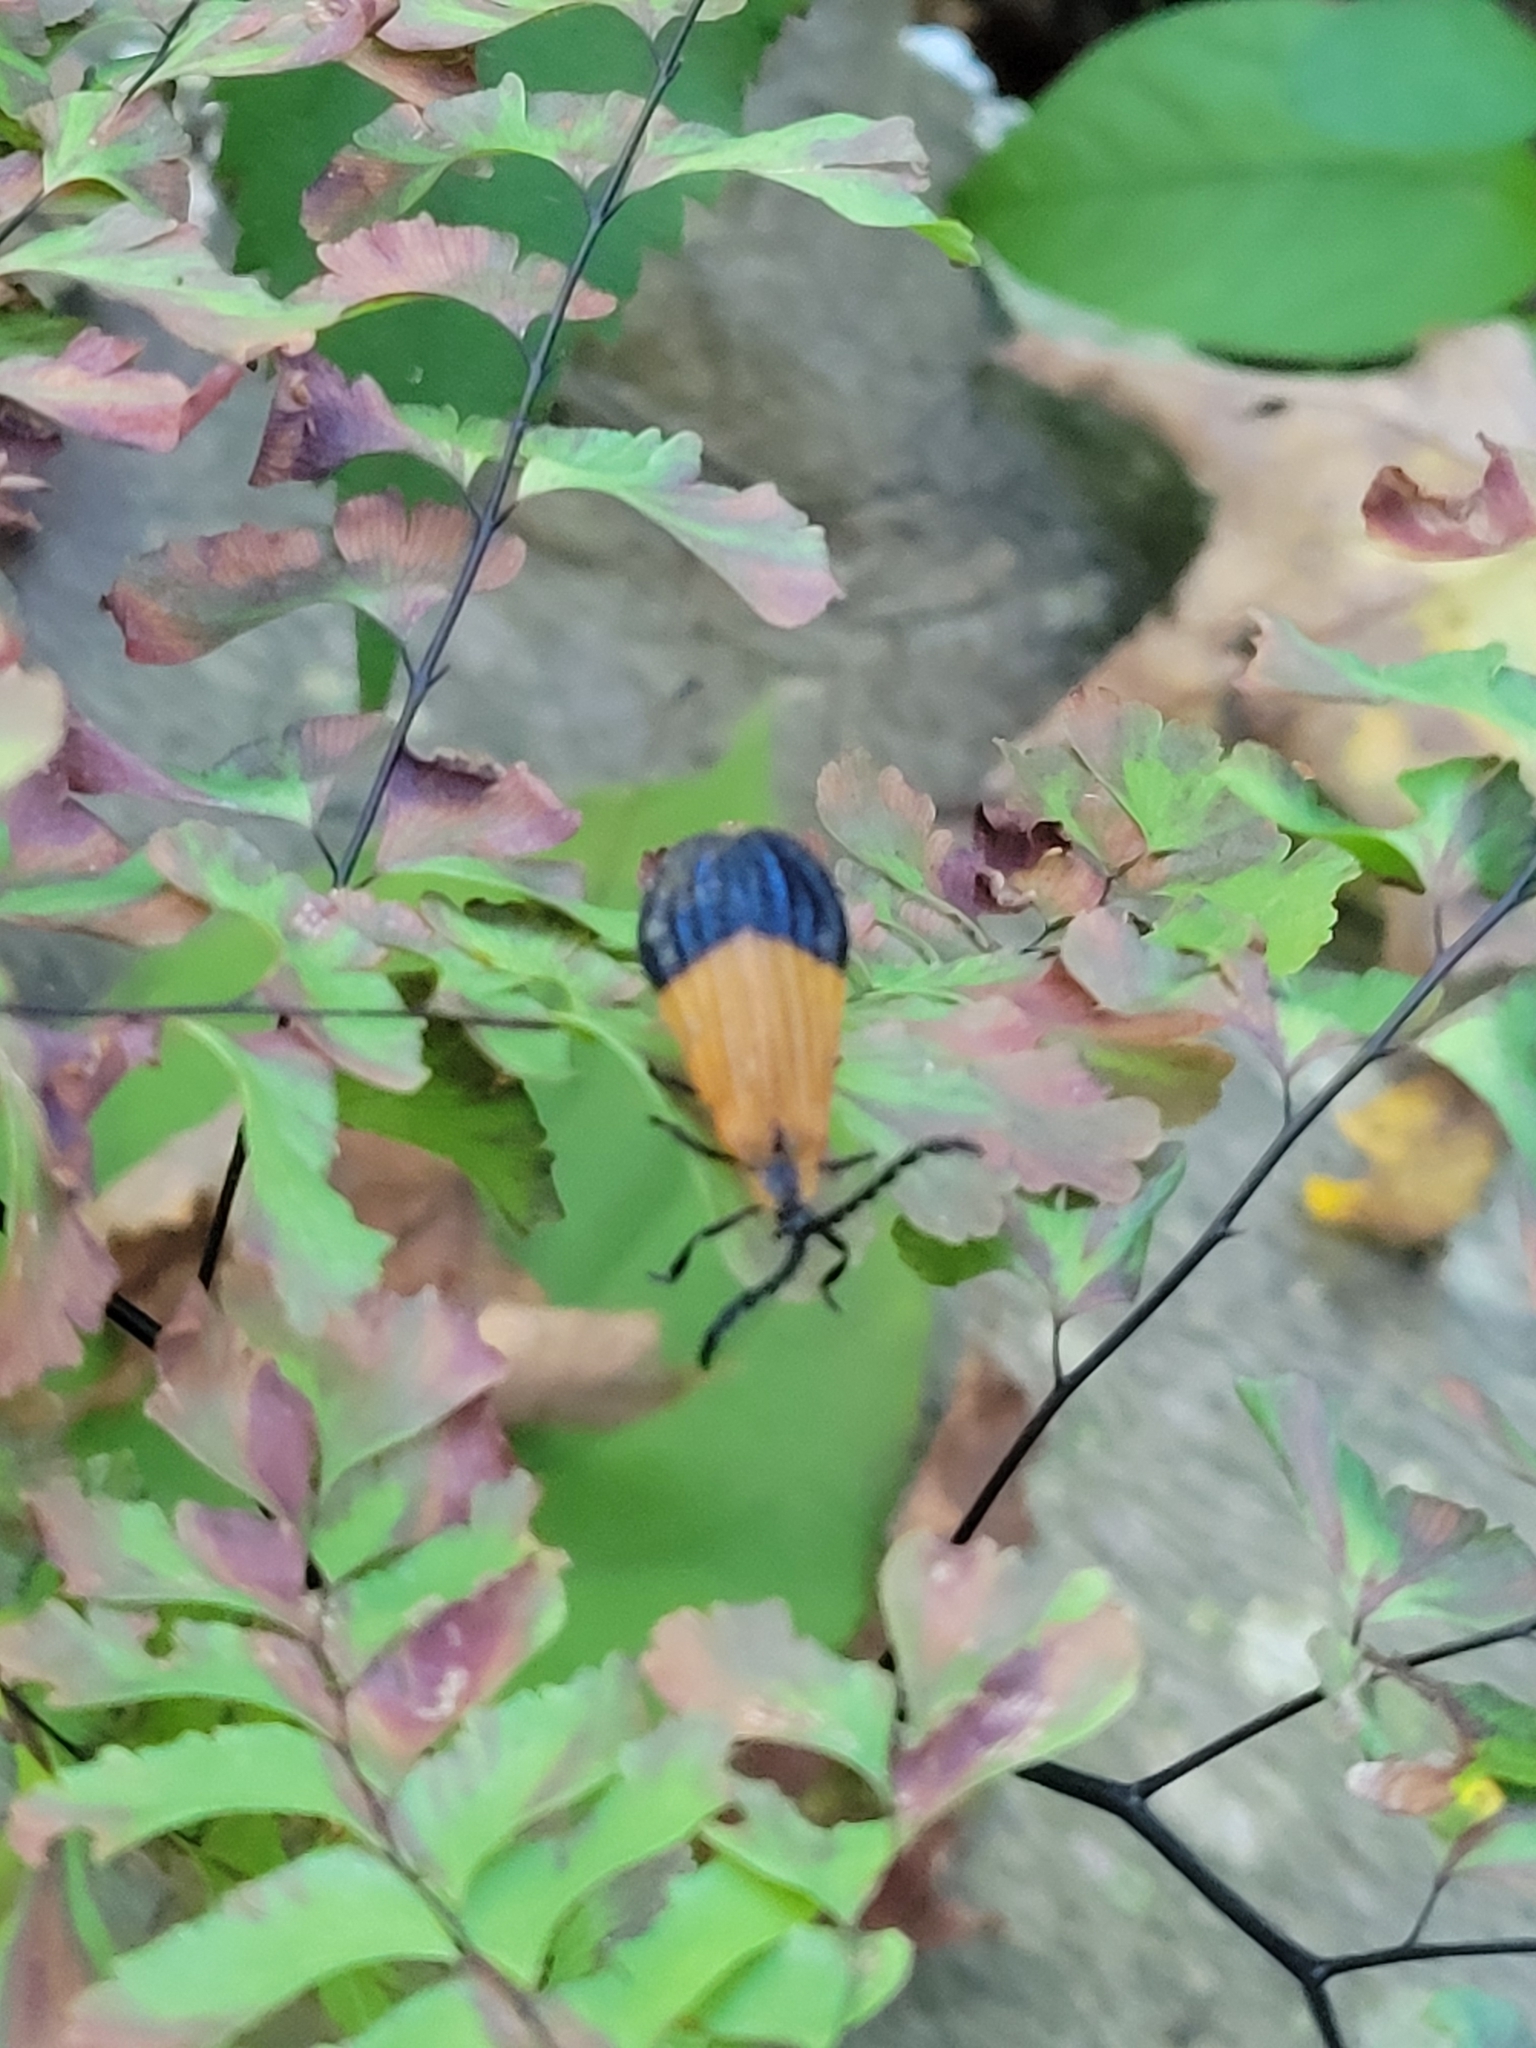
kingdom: Animalia
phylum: Arthropoda
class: Insecta
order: Coleoptera
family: Lycidae
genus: Calopteron
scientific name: Calopteron terminale
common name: End band net-winged beetle
